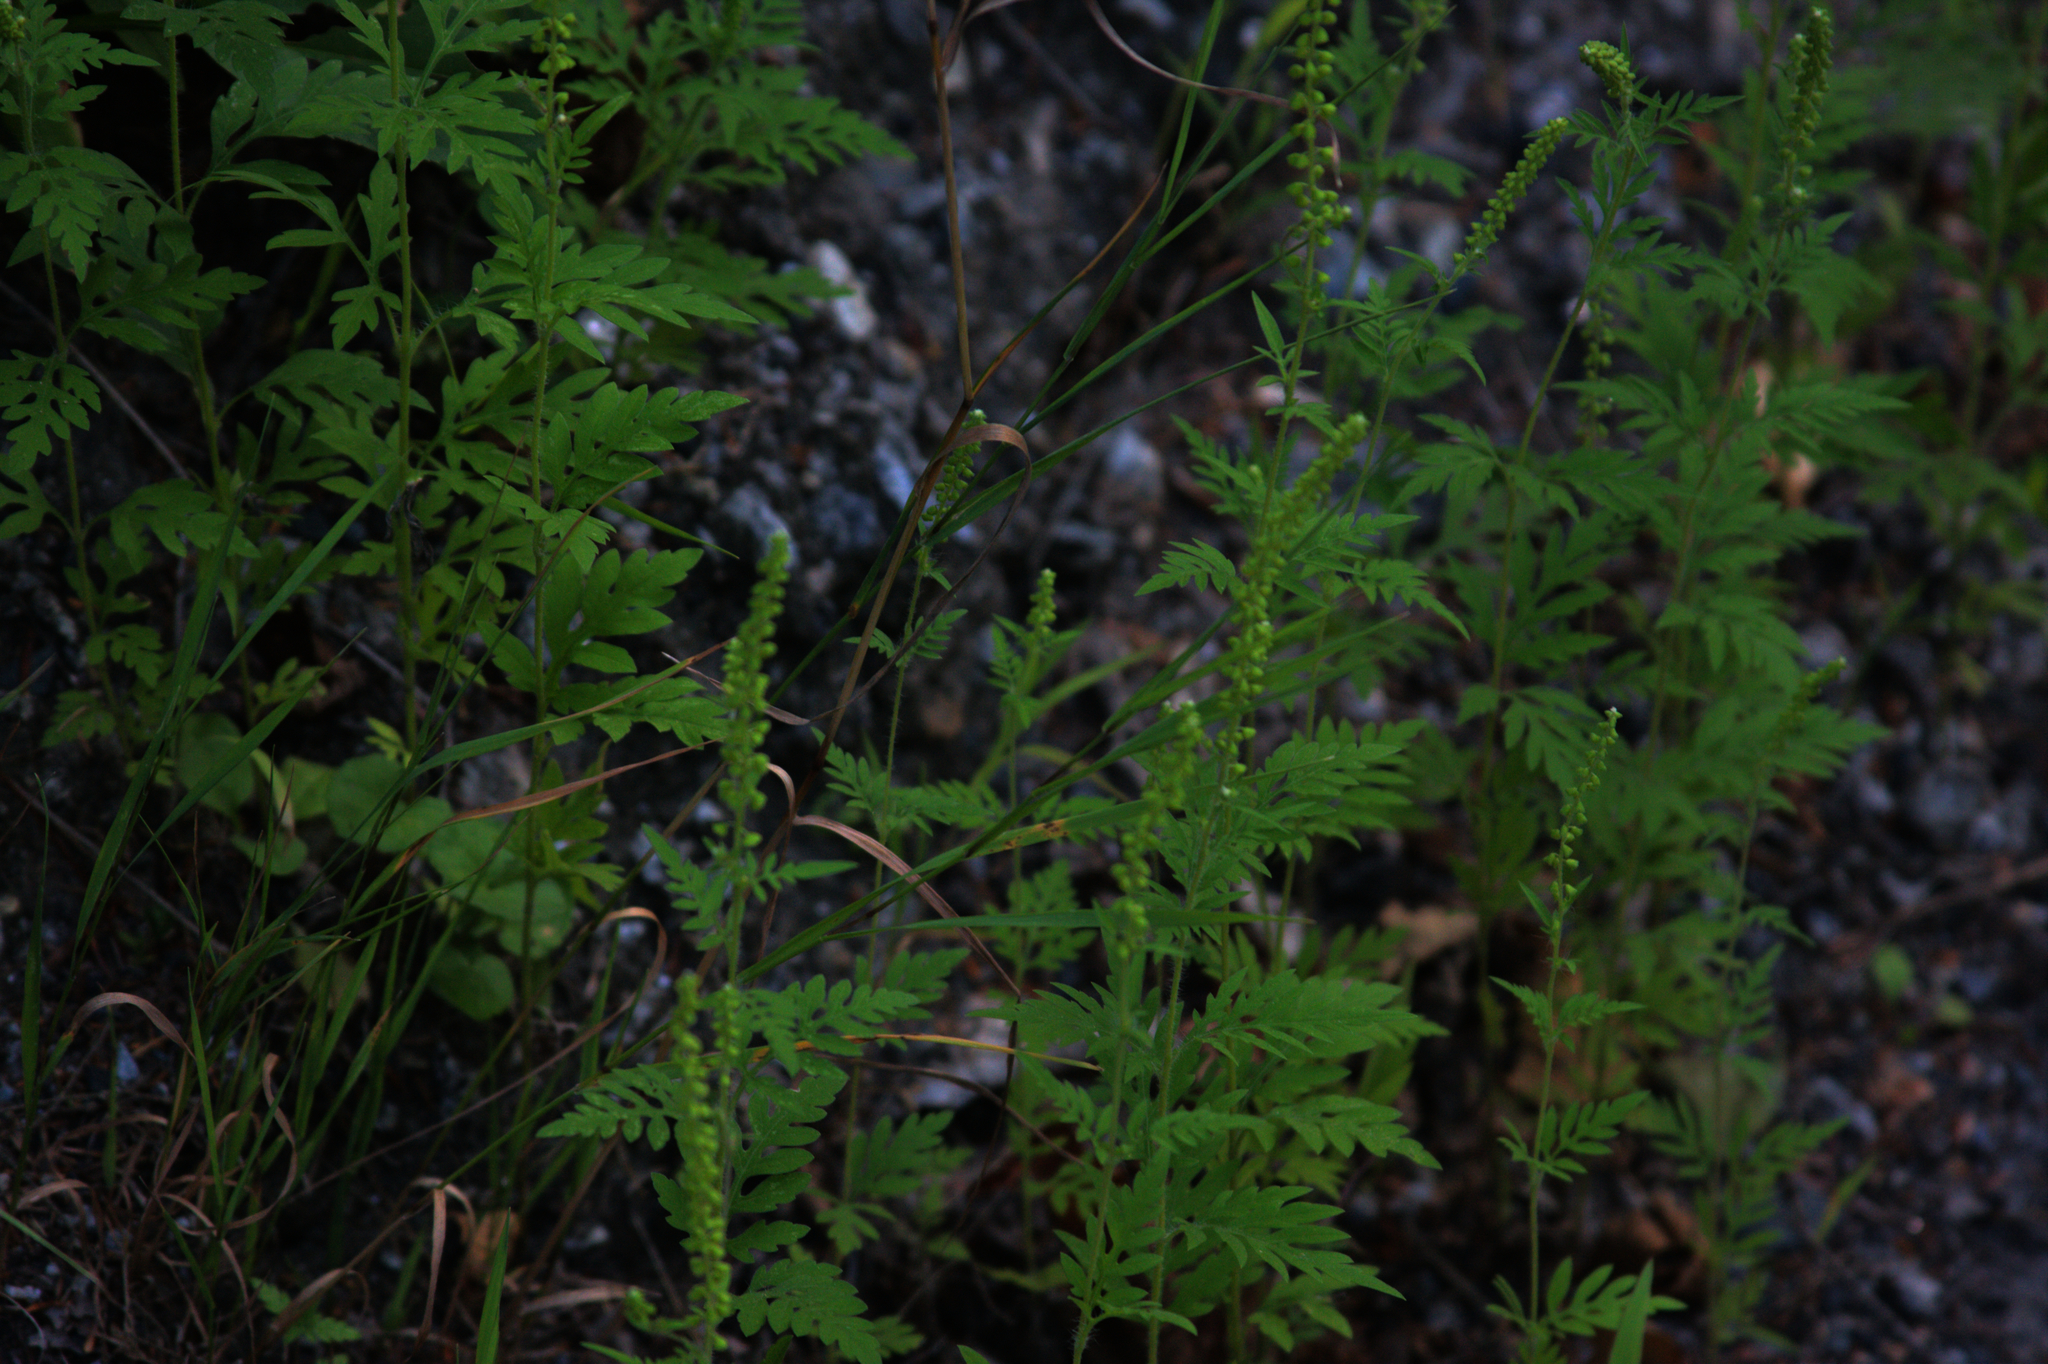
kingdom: Plantae
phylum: Tracheophyta
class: Magnoliopsida
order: Asterales
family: Asteraceae
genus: Ambrosia
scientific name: Ambrosia artemisiifolia
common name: Annual ragweed
